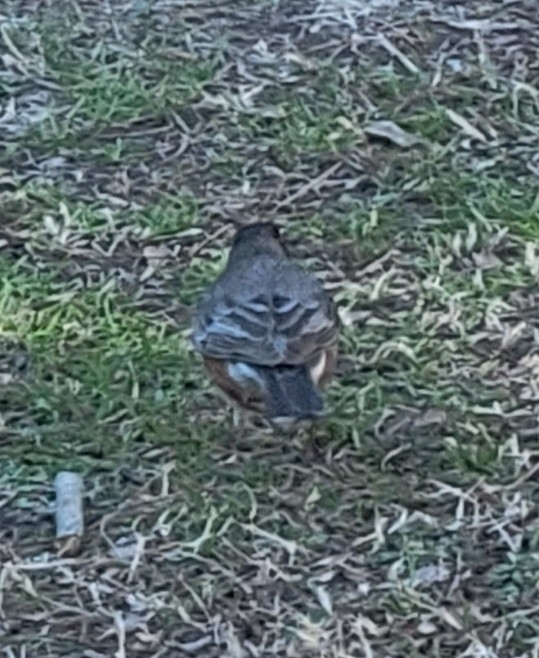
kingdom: Animalia
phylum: Chordata
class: Aves
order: Passeriformes
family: Turdidae
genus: Turdus
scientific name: Turdus migratorius
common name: American robin
